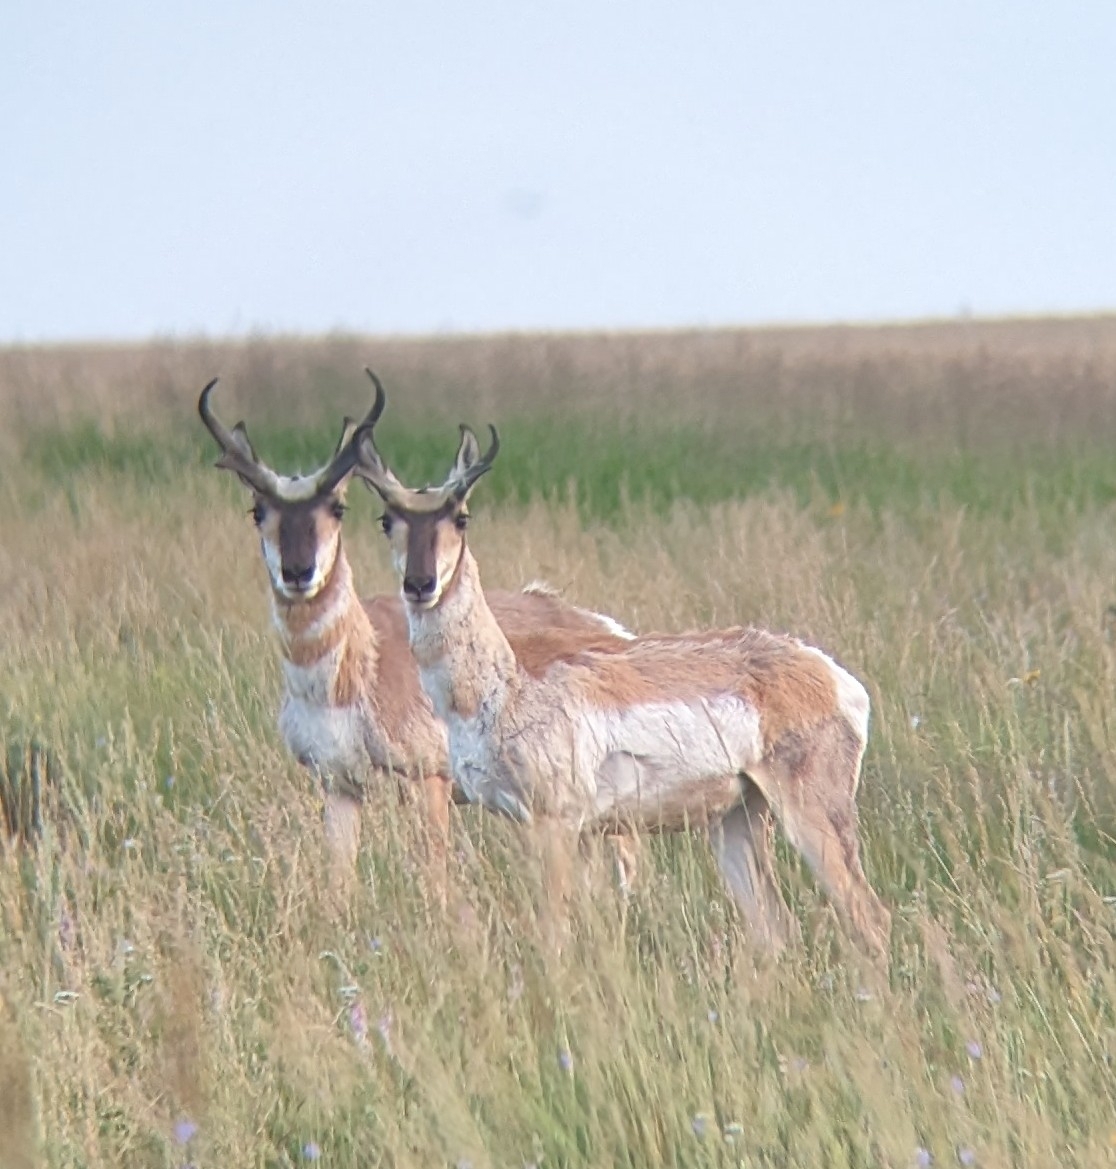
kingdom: Animalia
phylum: Chordata
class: Mammalia
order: Artiodactyla
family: Antilocapridae
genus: Antilocapra
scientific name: Antilocapra americana
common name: Pronghorn
